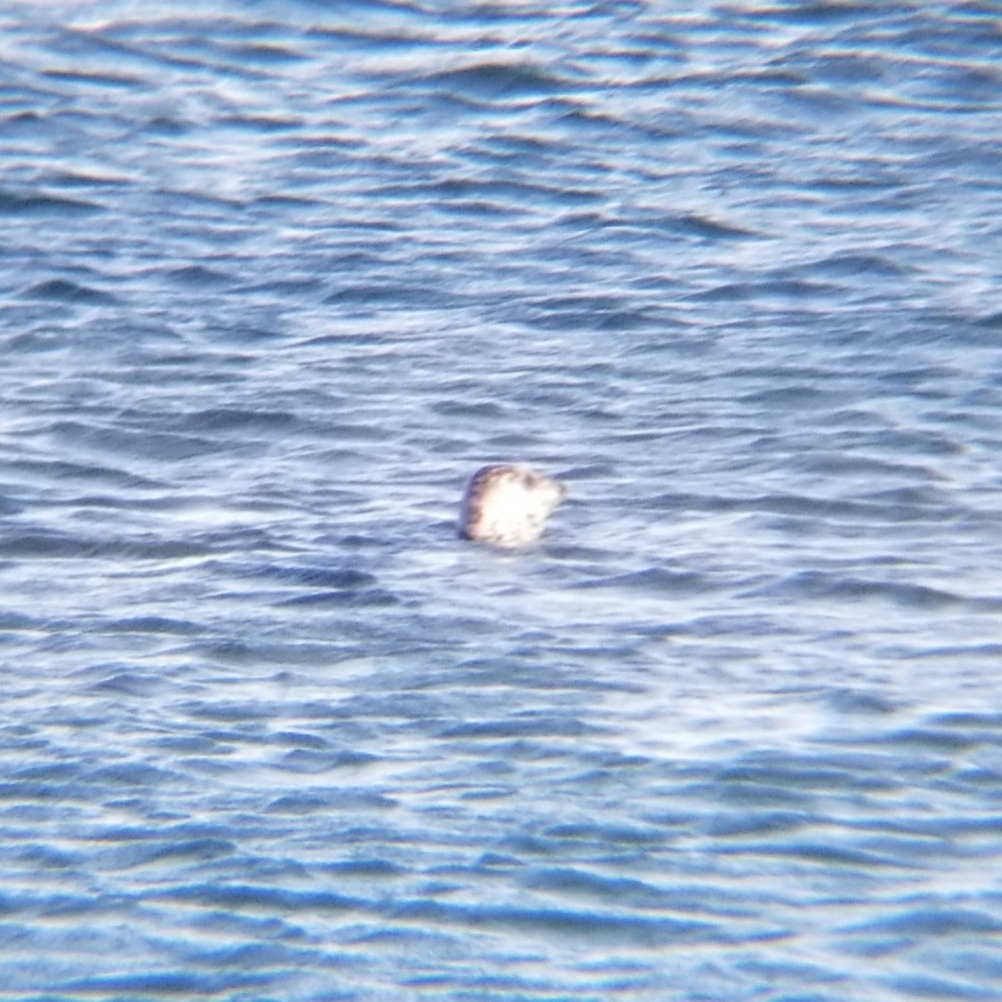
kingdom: Animalia
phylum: Chordata
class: Mammalia
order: Carnivora
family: Phocidae
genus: Phoca
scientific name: Phoca vitulina
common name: Harbor seal
